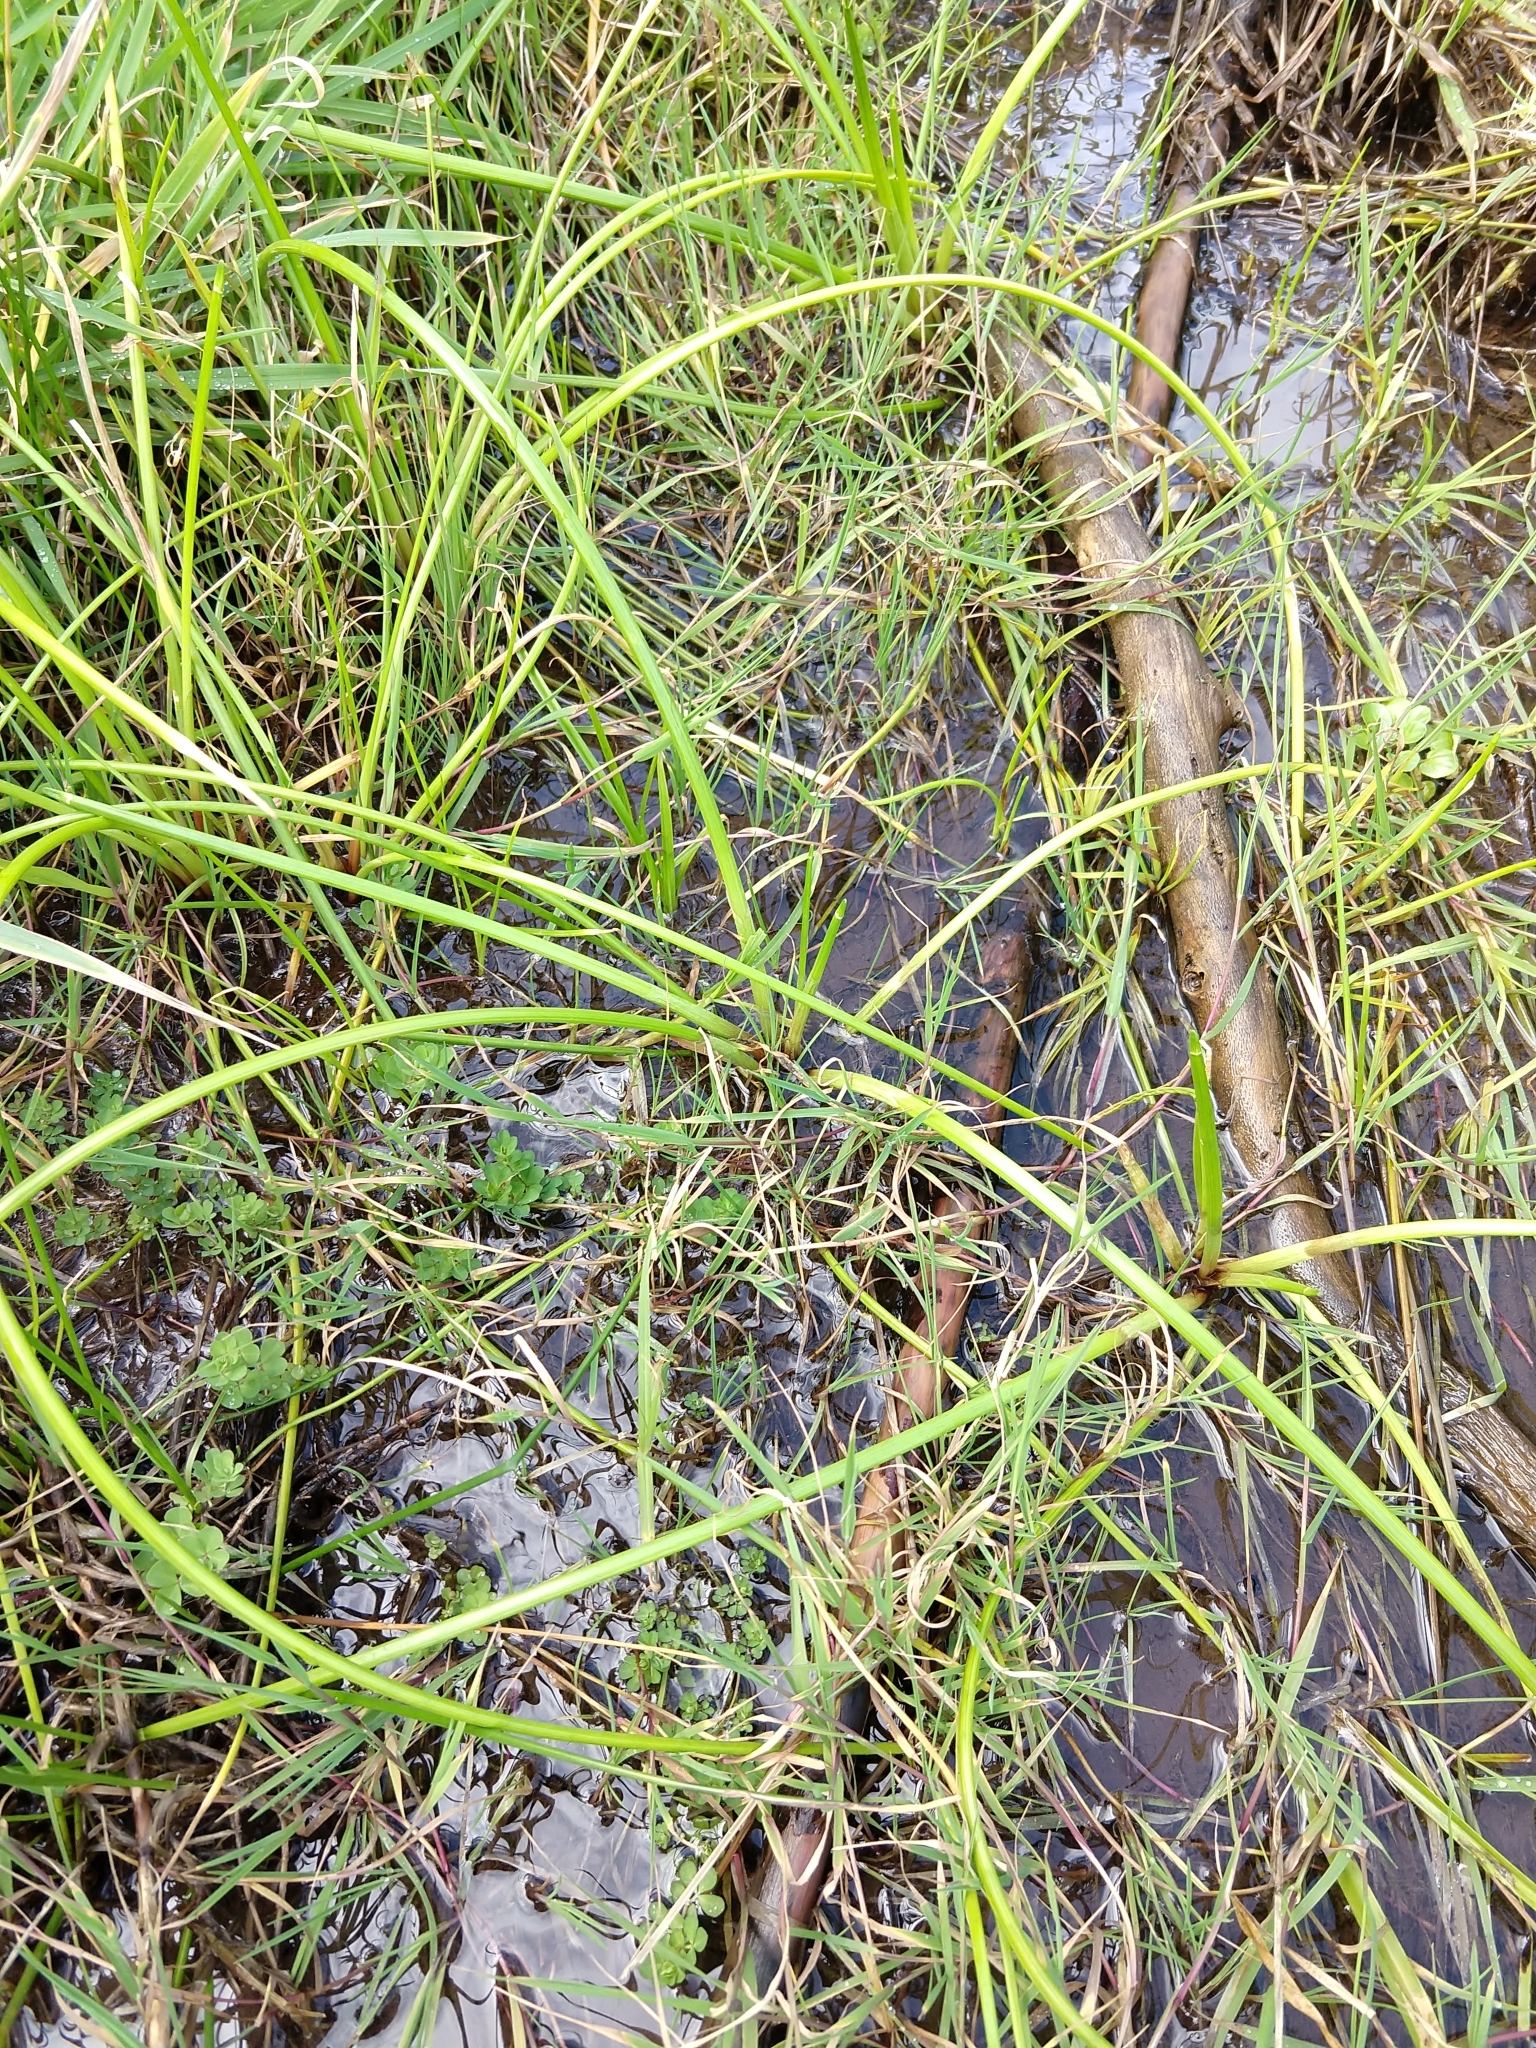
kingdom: Plantae
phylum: Tracheophyta
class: Liliopsida
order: Poales
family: Cyperaceae
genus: Isolepis
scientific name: Isolepis prolifera
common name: Proliferating bulrush
